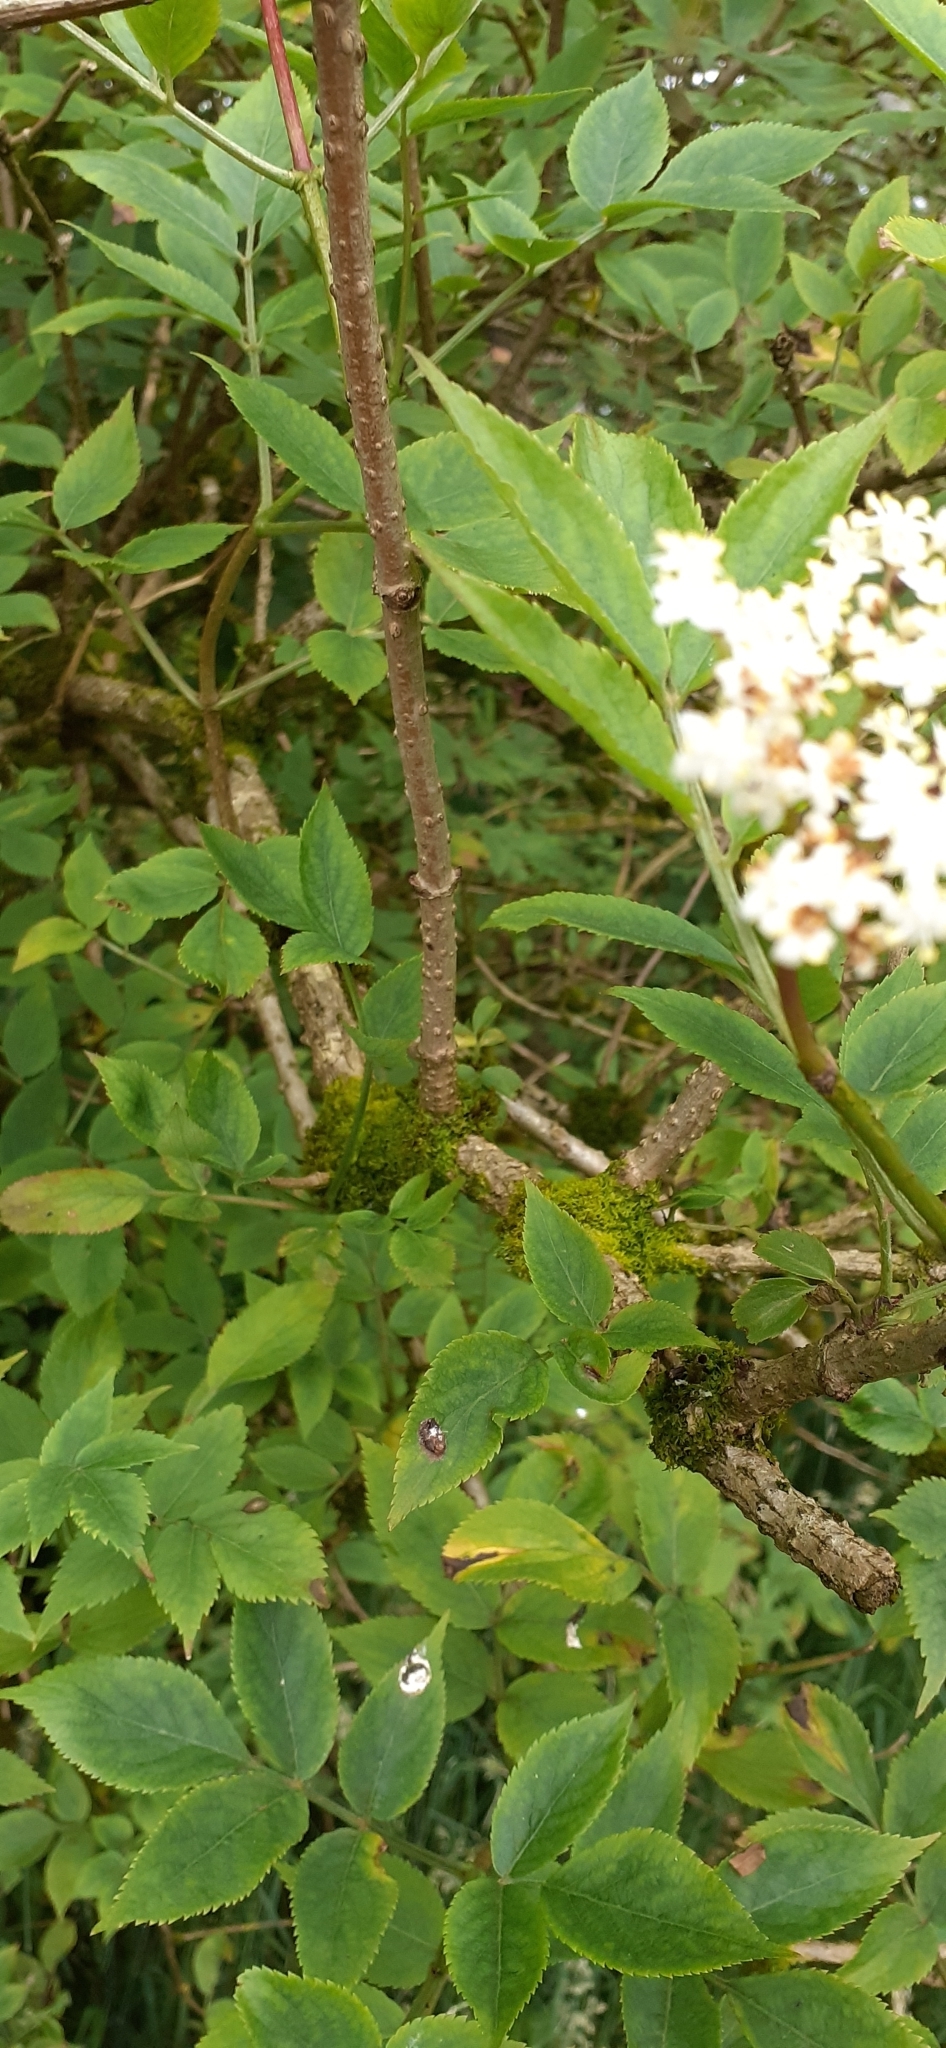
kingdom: Plantae
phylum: Tracheophyta
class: Magnoliopsida
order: Dipsacales
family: Viburnaceae
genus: Sambucus
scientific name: Sambucus nigra
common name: Elder
